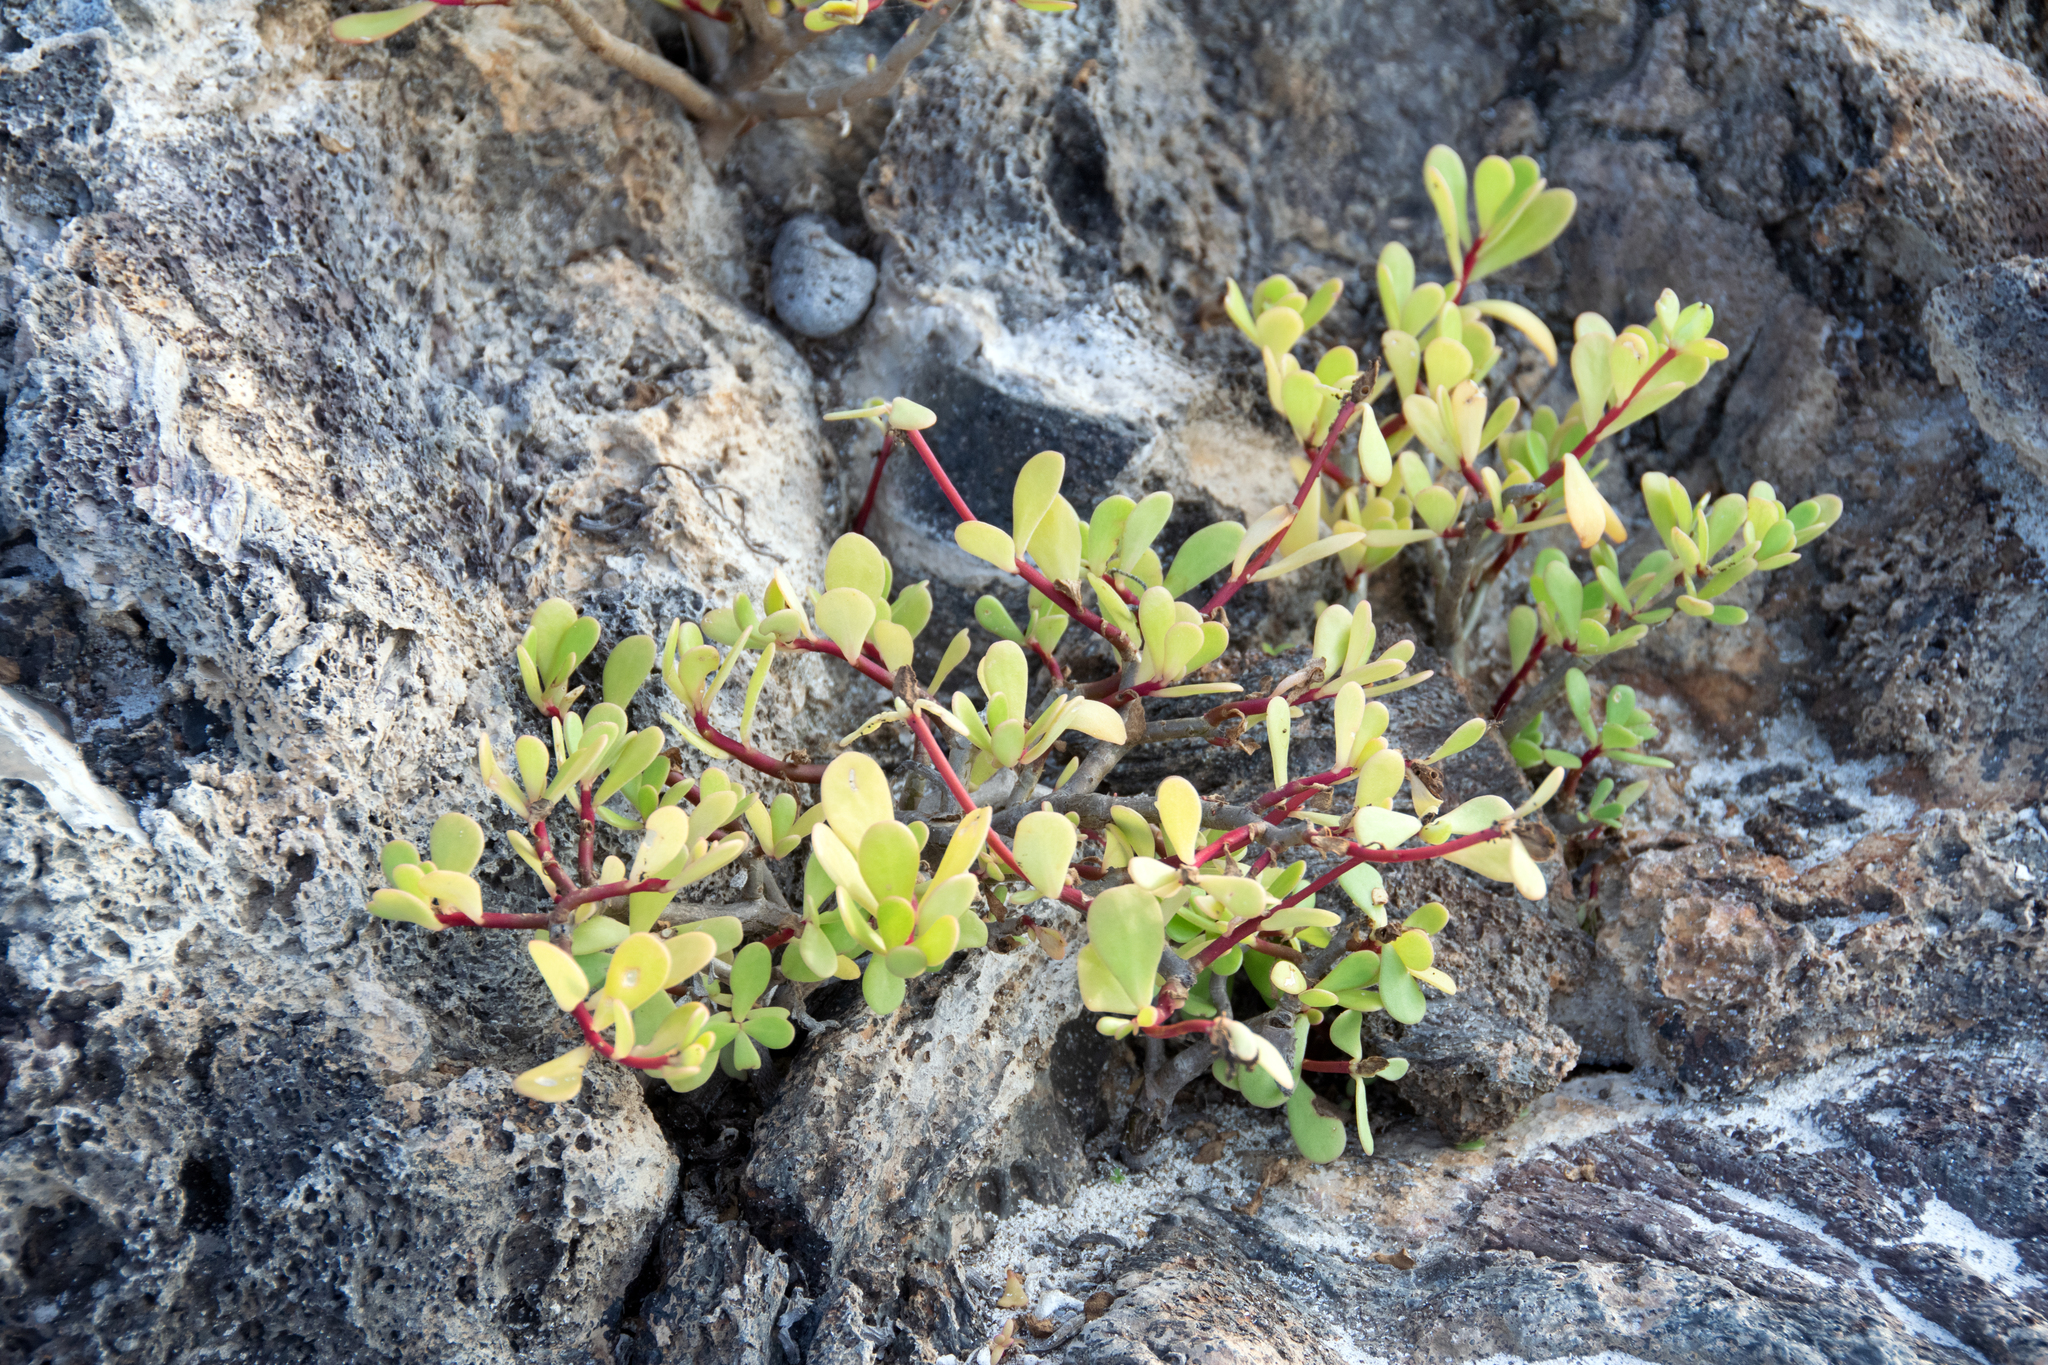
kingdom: Plantae
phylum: Tracheophyta
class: Magnoliopsida
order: Caryophyllales
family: Portulacaceae
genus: Portulaca
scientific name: Portulaca howellii
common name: Galapagos purslane
